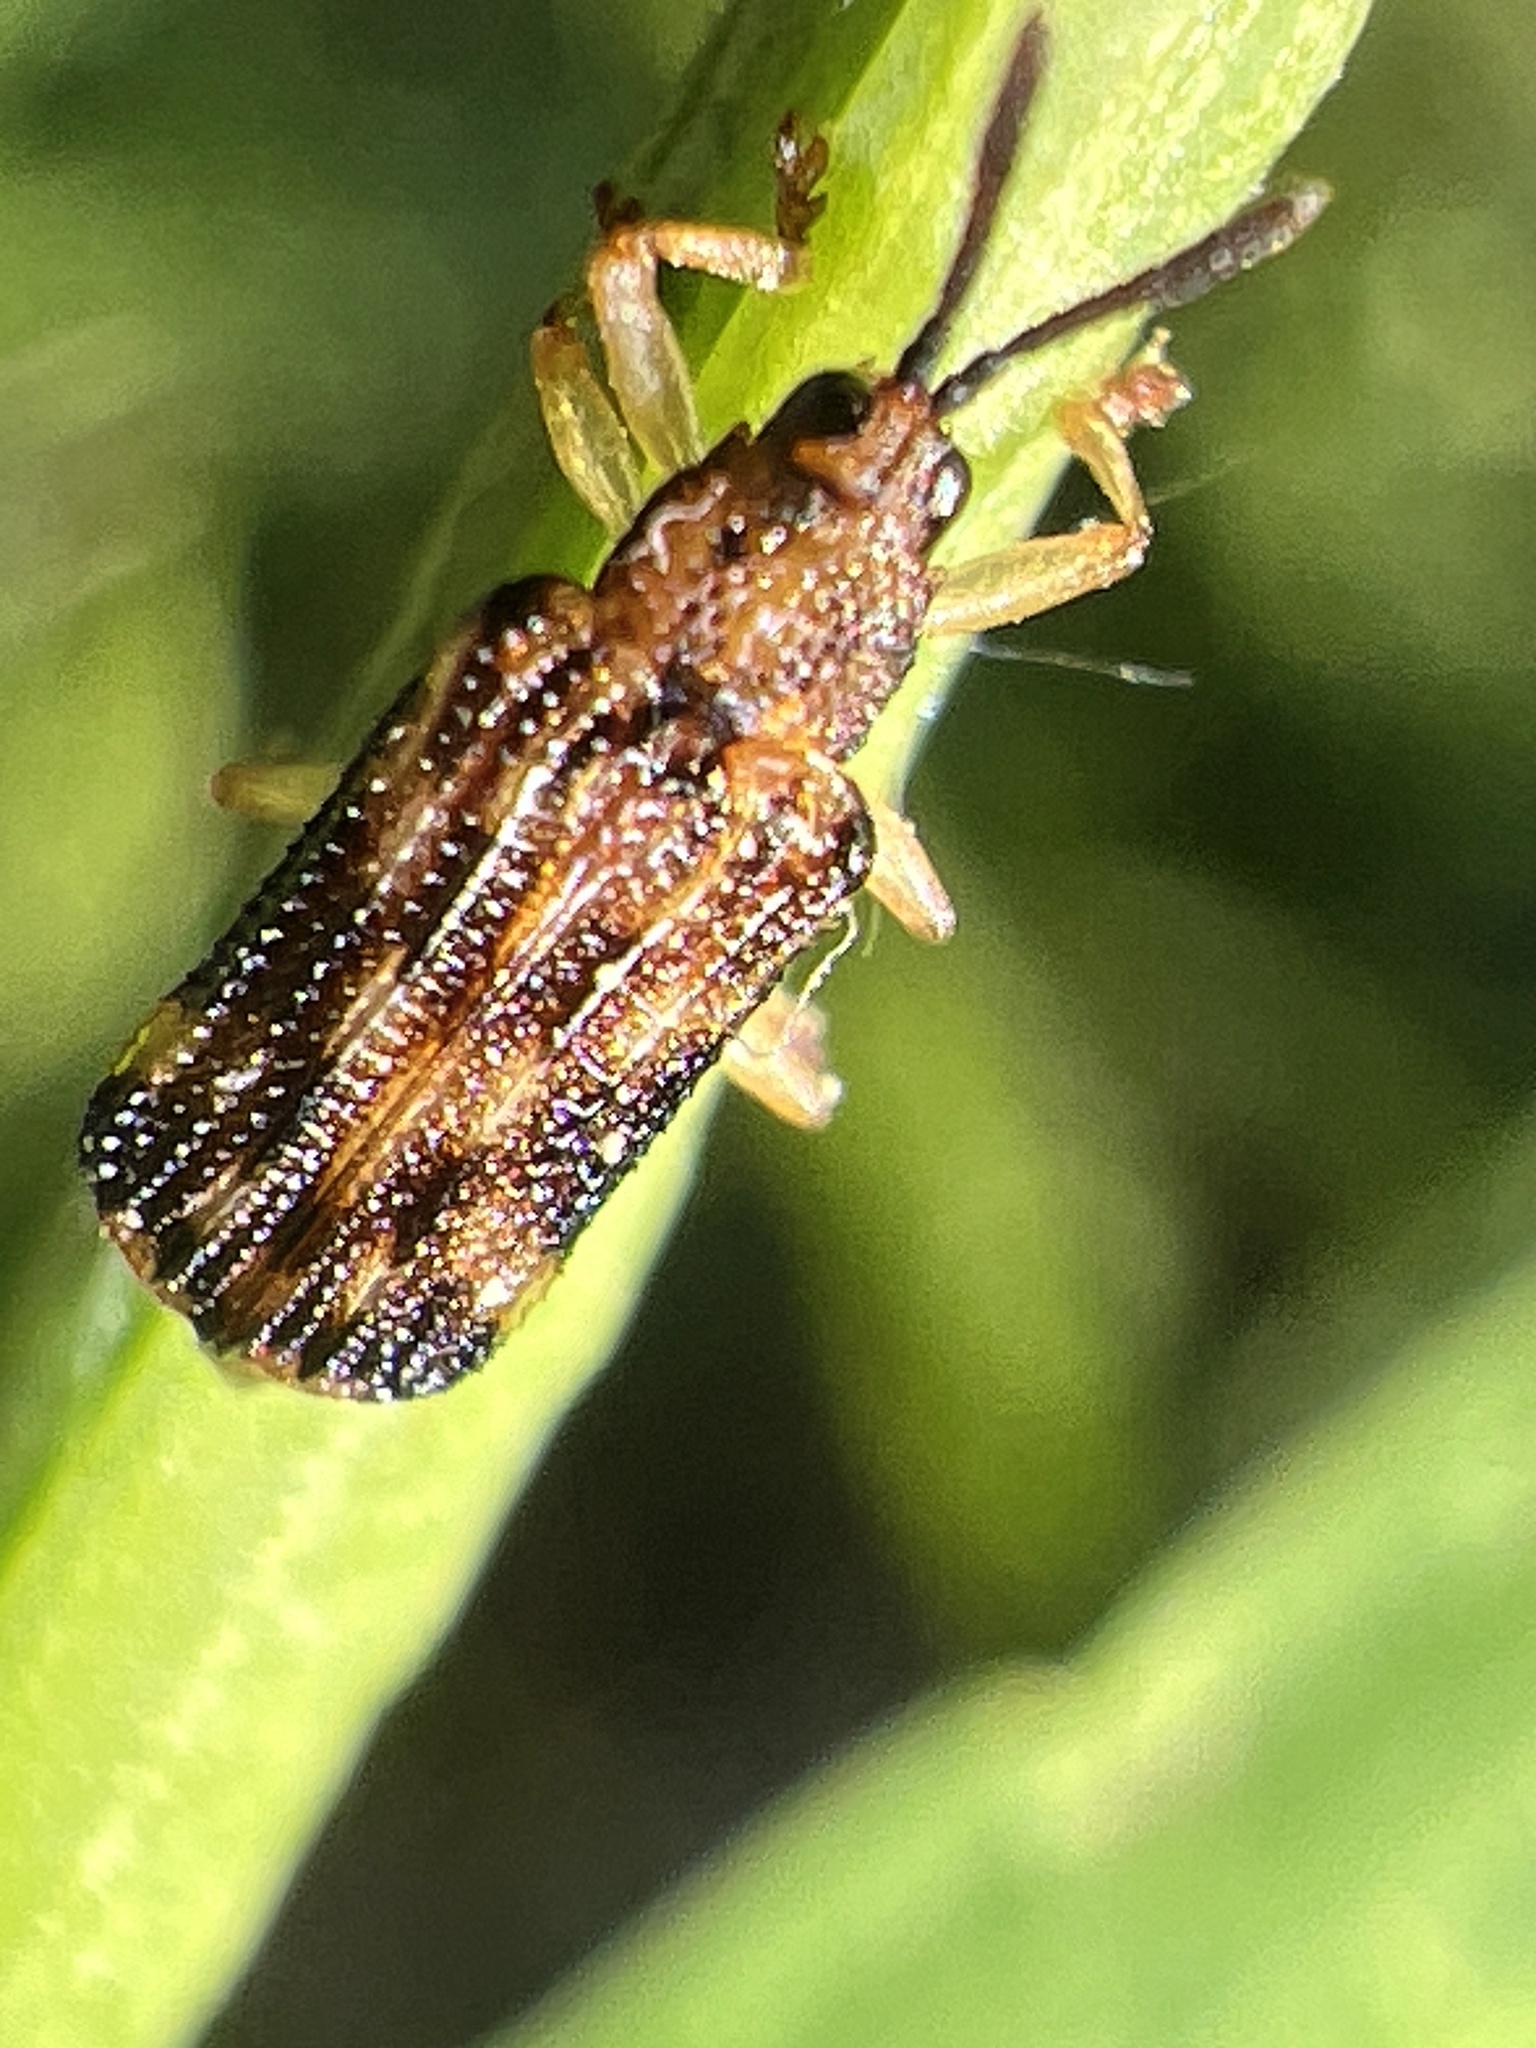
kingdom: Animalia
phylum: Arthropoda
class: Insecta
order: Coleoptera
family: Chrysomelidae
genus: Sumitrosis
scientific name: Sumitrosis inaequalis
